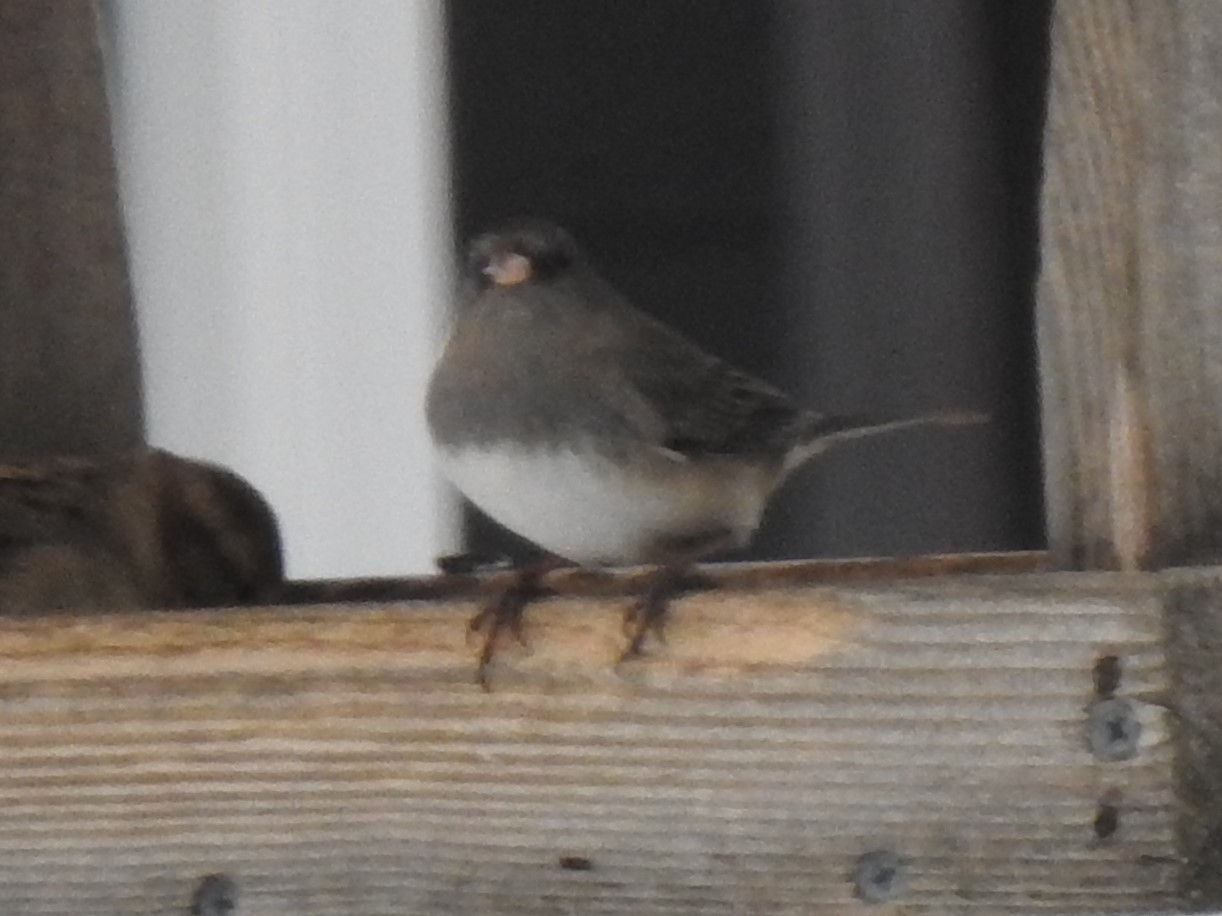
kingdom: Animalia
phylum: Chordata
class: Aves
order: Passeriformes
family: Passerellidae
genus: Junco
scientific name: Junco hyemalis
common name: Dark-eyed junco
